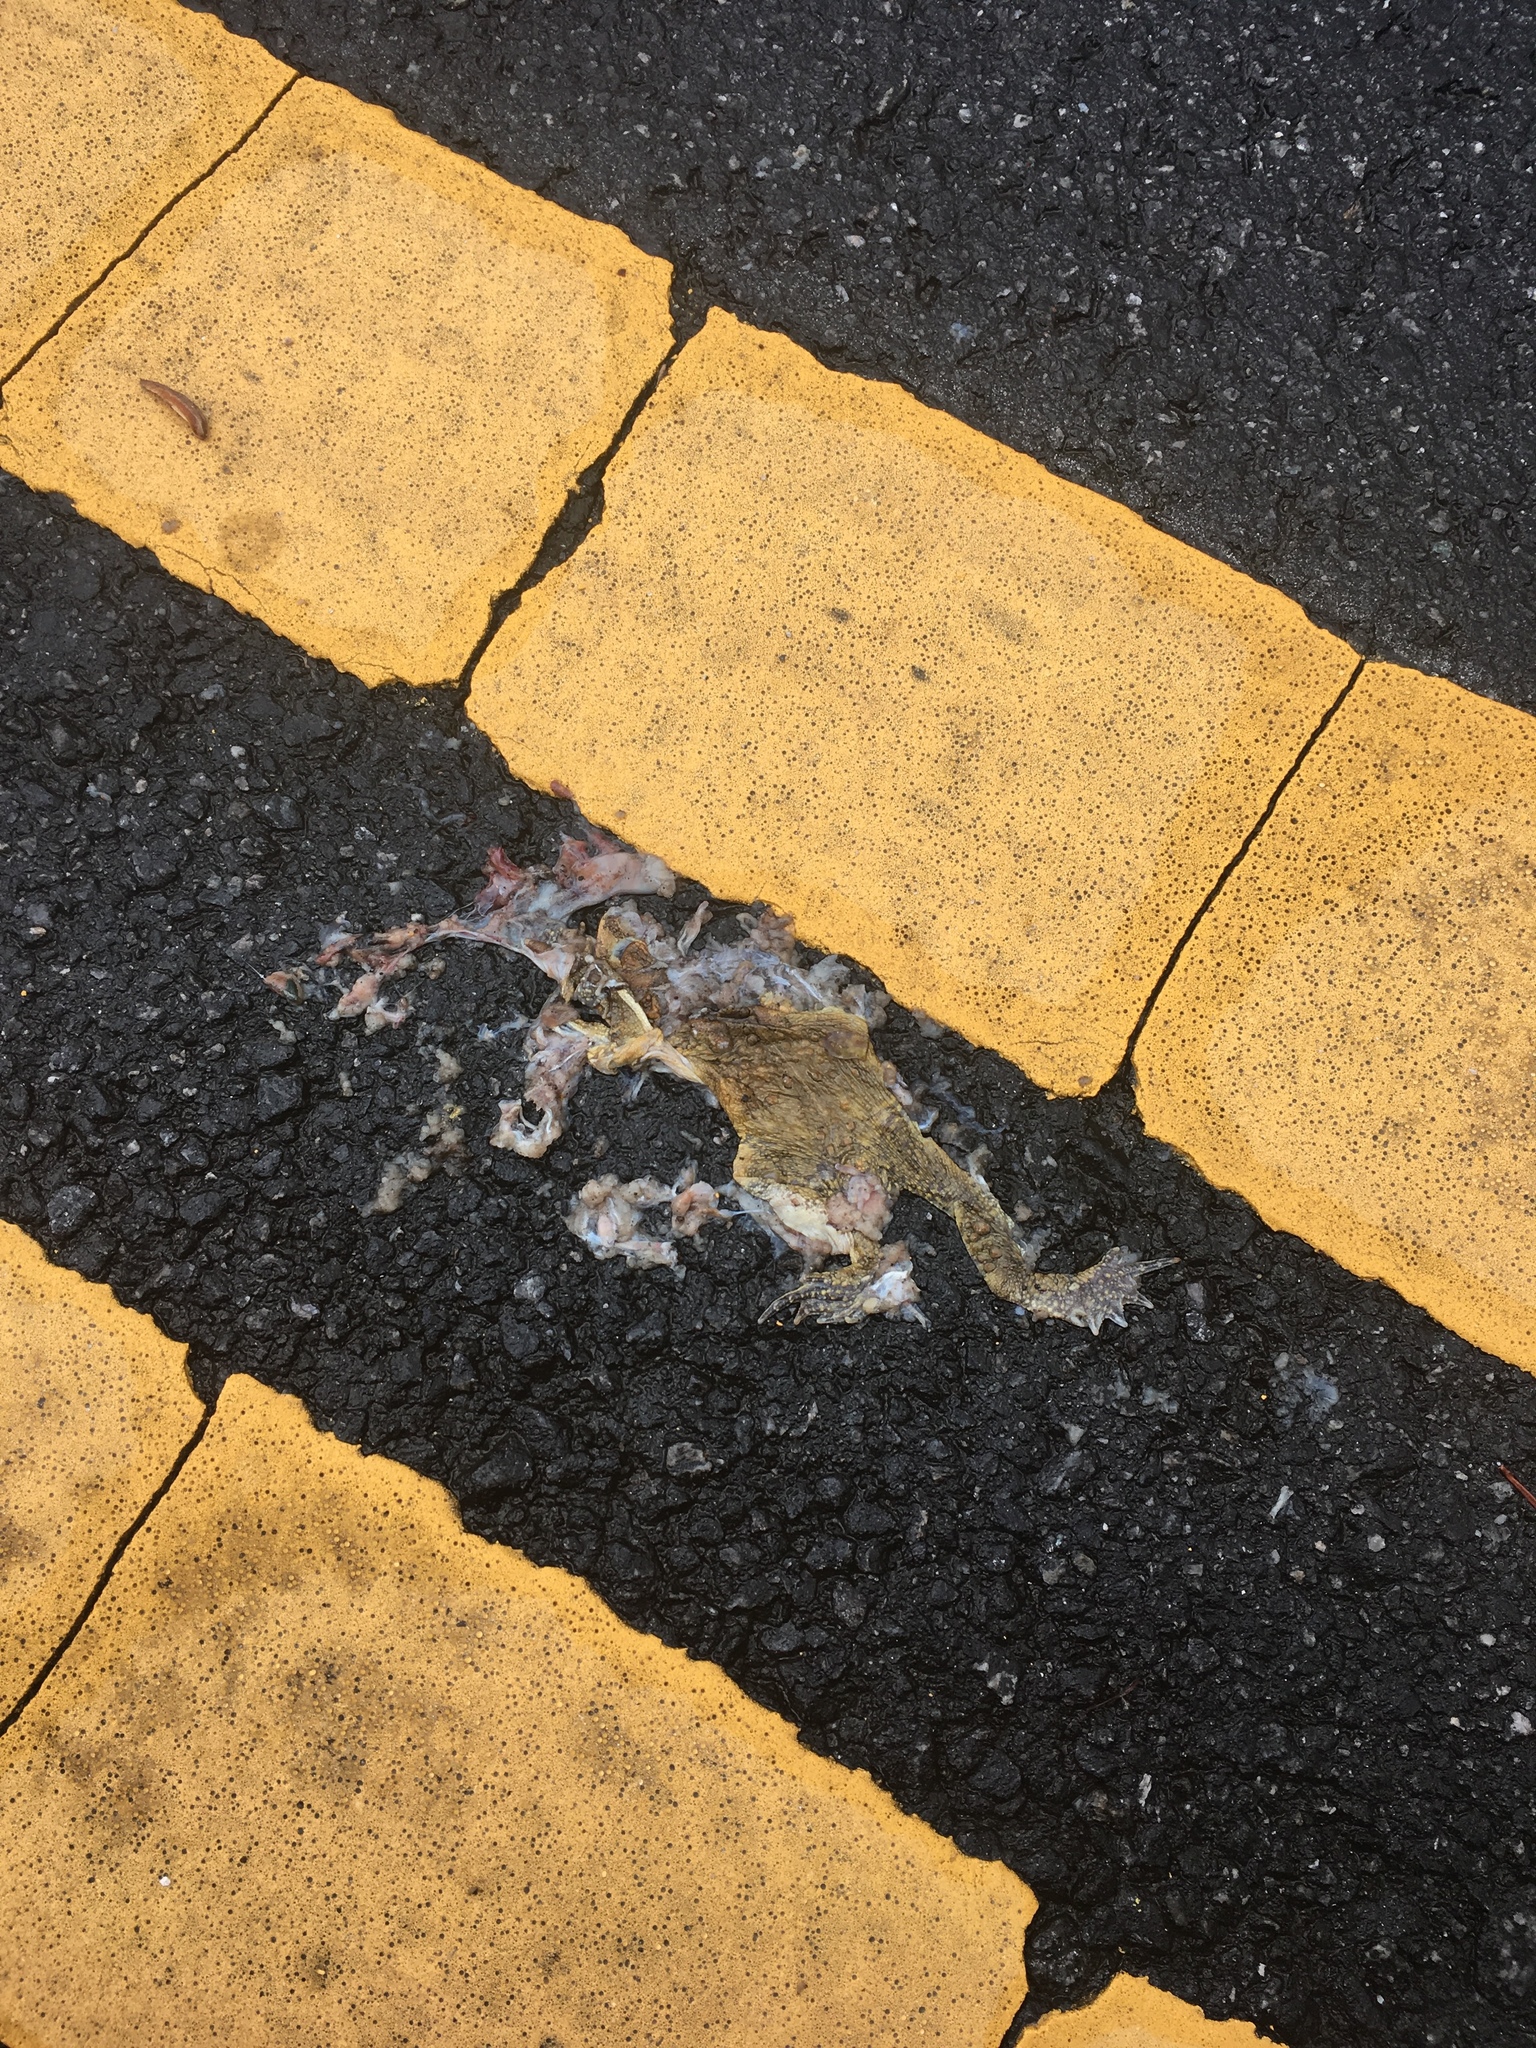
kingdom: Animalia
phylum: Chordata
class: Amphibia
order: Anura
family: Bufonidae
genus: Anaxyrus
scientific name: Anaxyrus americanus
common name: American toad
